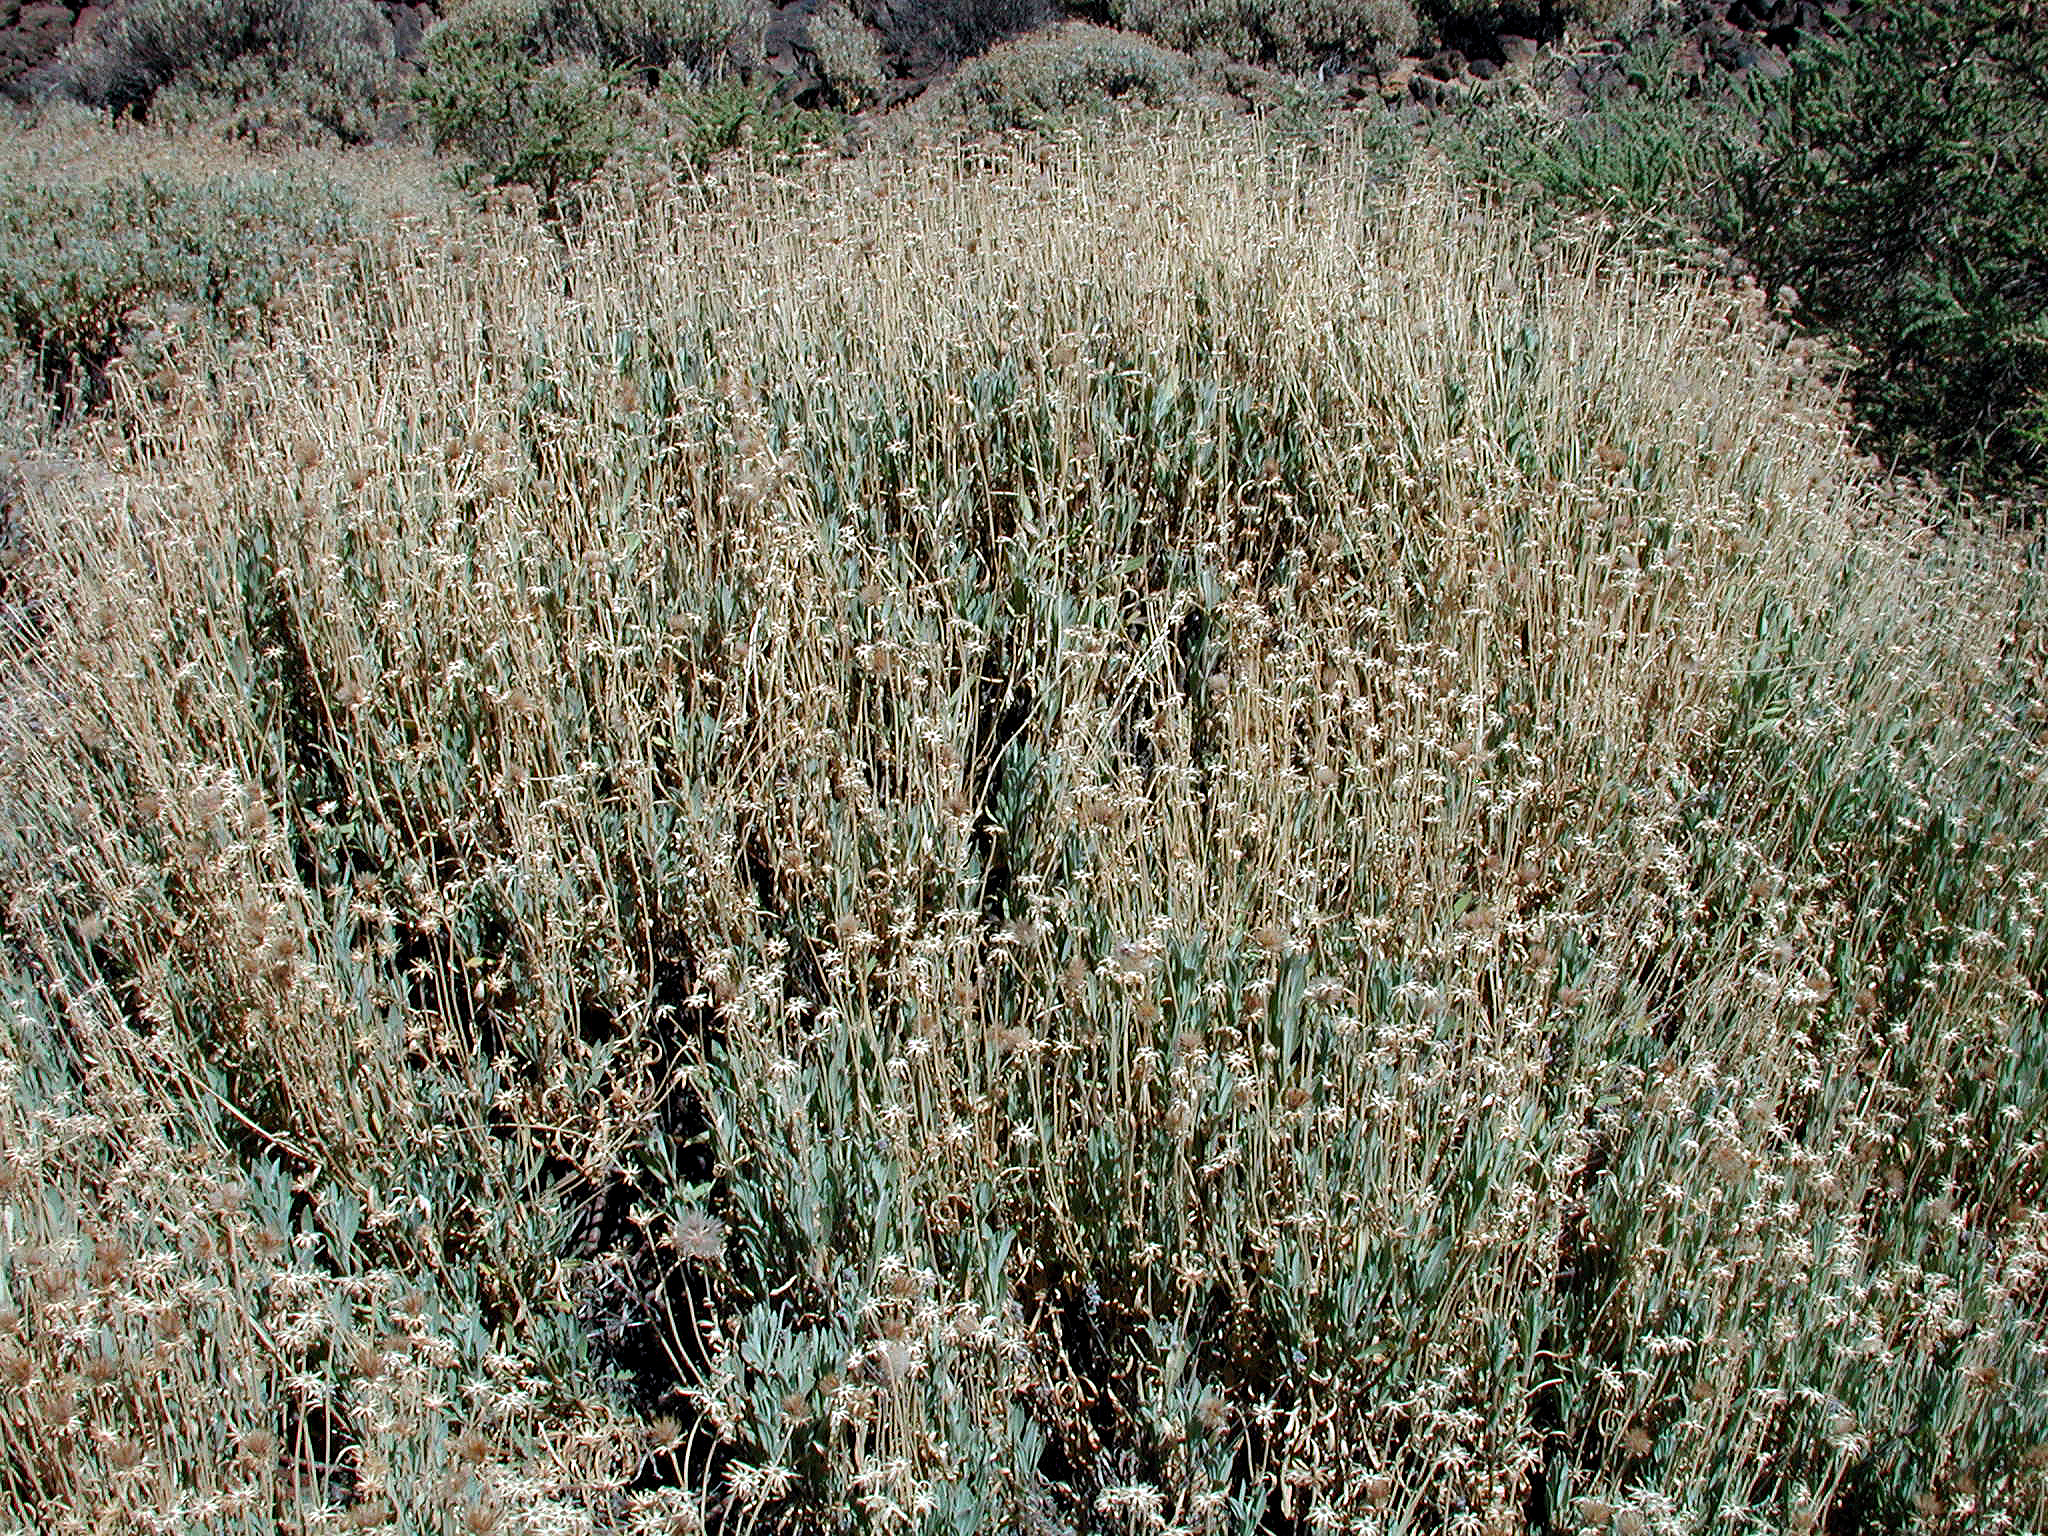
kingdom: Plantae
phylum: Tracheophyta
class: Magnoliopsida
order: Dipsacales
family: Caprifoliaceae
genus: Pterocephalus
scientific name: Pterocephalus lasiospermus
